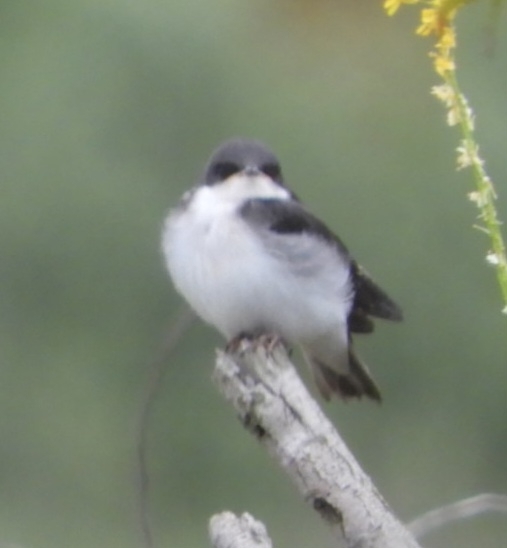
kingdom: Animalia
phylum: Chordata
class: Aves
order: Passeriformes
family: Hirundinidae
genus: Tachycineta
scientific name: Tachycineta bicolor
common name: Tree swallow
